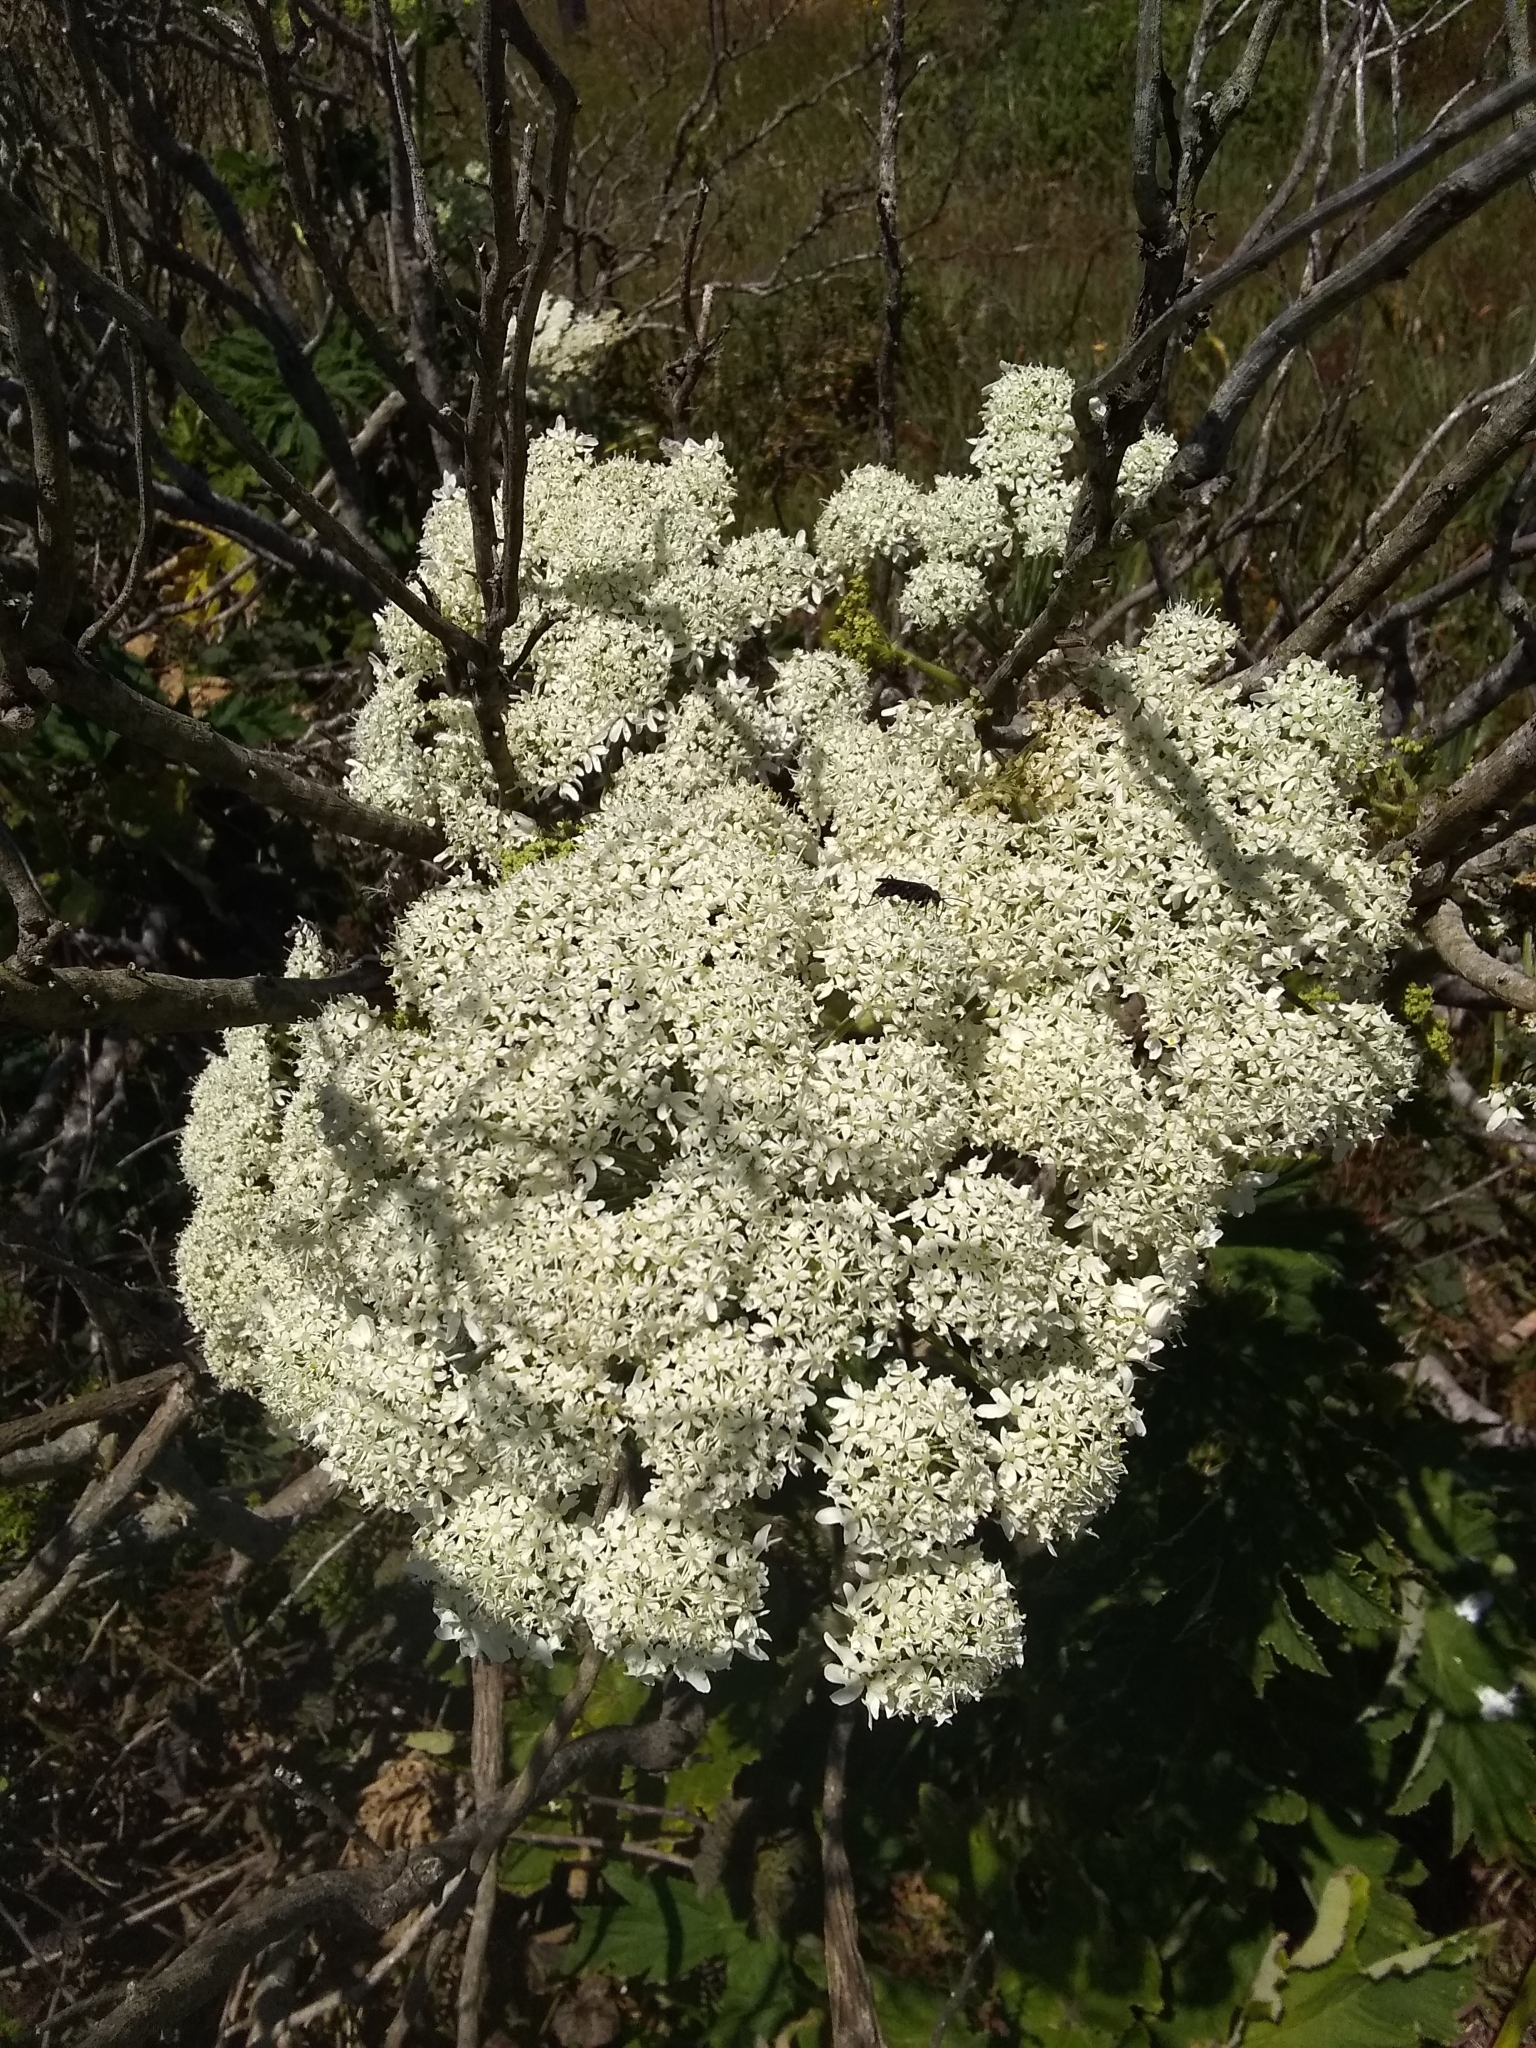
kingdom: Plantae
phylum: Tracheophyta
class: Magnoliopsida
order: Apiales
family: Apiaceae
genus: Heracleum
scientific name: Heracleum maximum
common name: American cow parsnip
